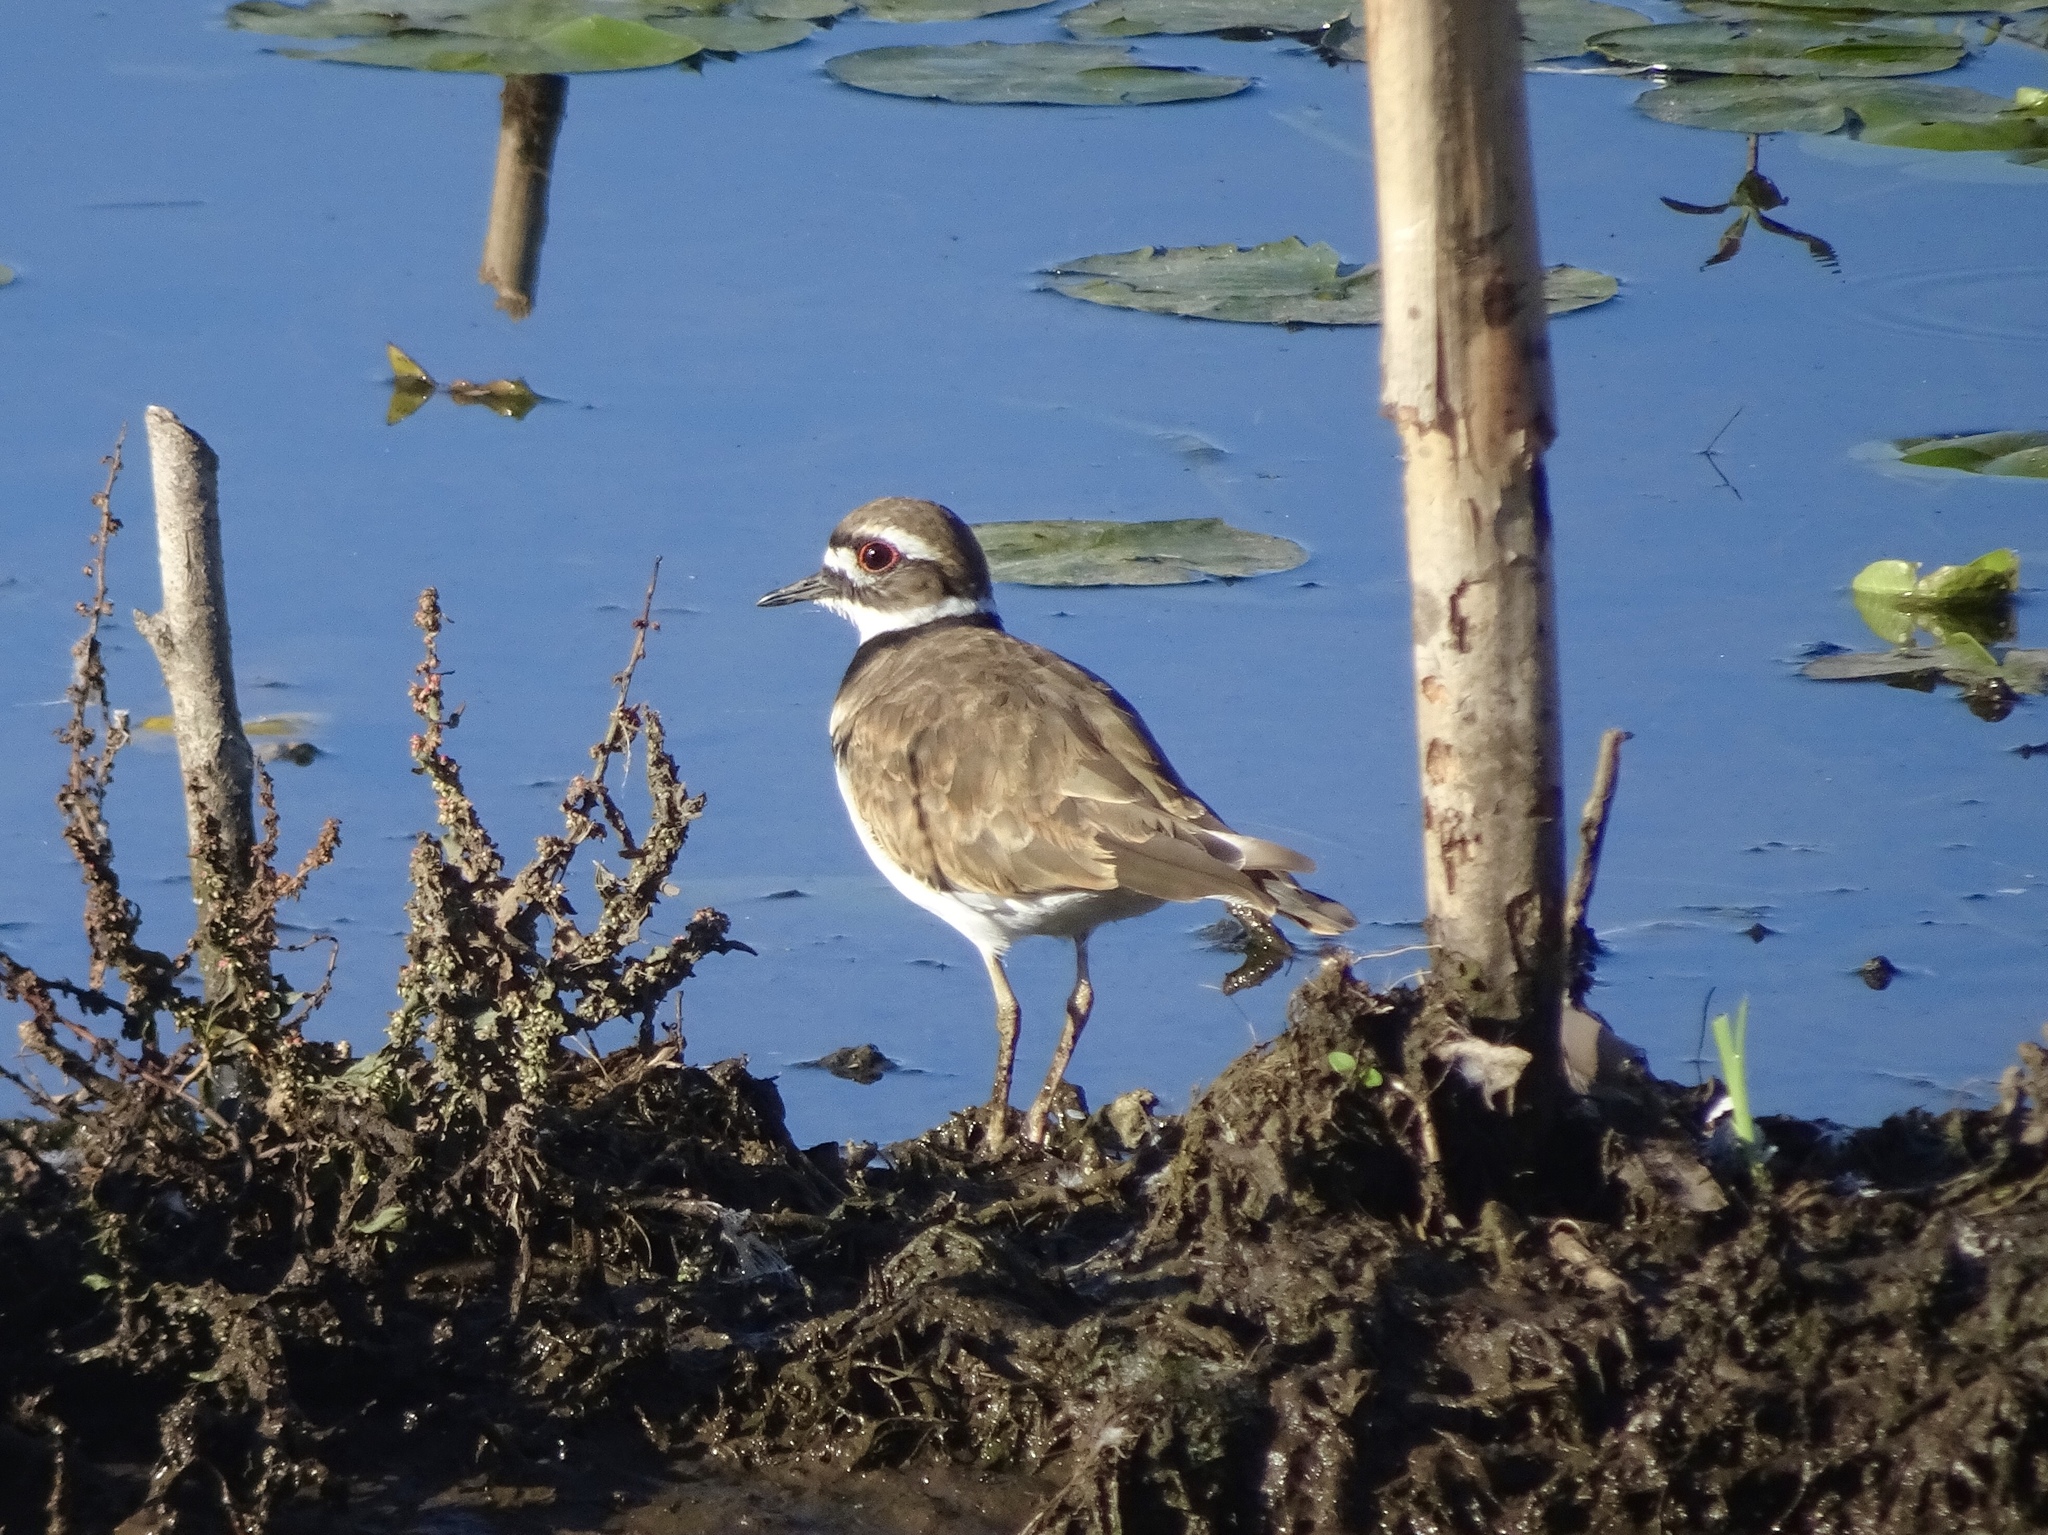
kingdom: Animalia
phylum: Chordata
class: Aves
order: Charadriiformes
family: Charadriidae
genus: Charadrius
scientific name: Charadrius vociferus
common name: Killdeer
